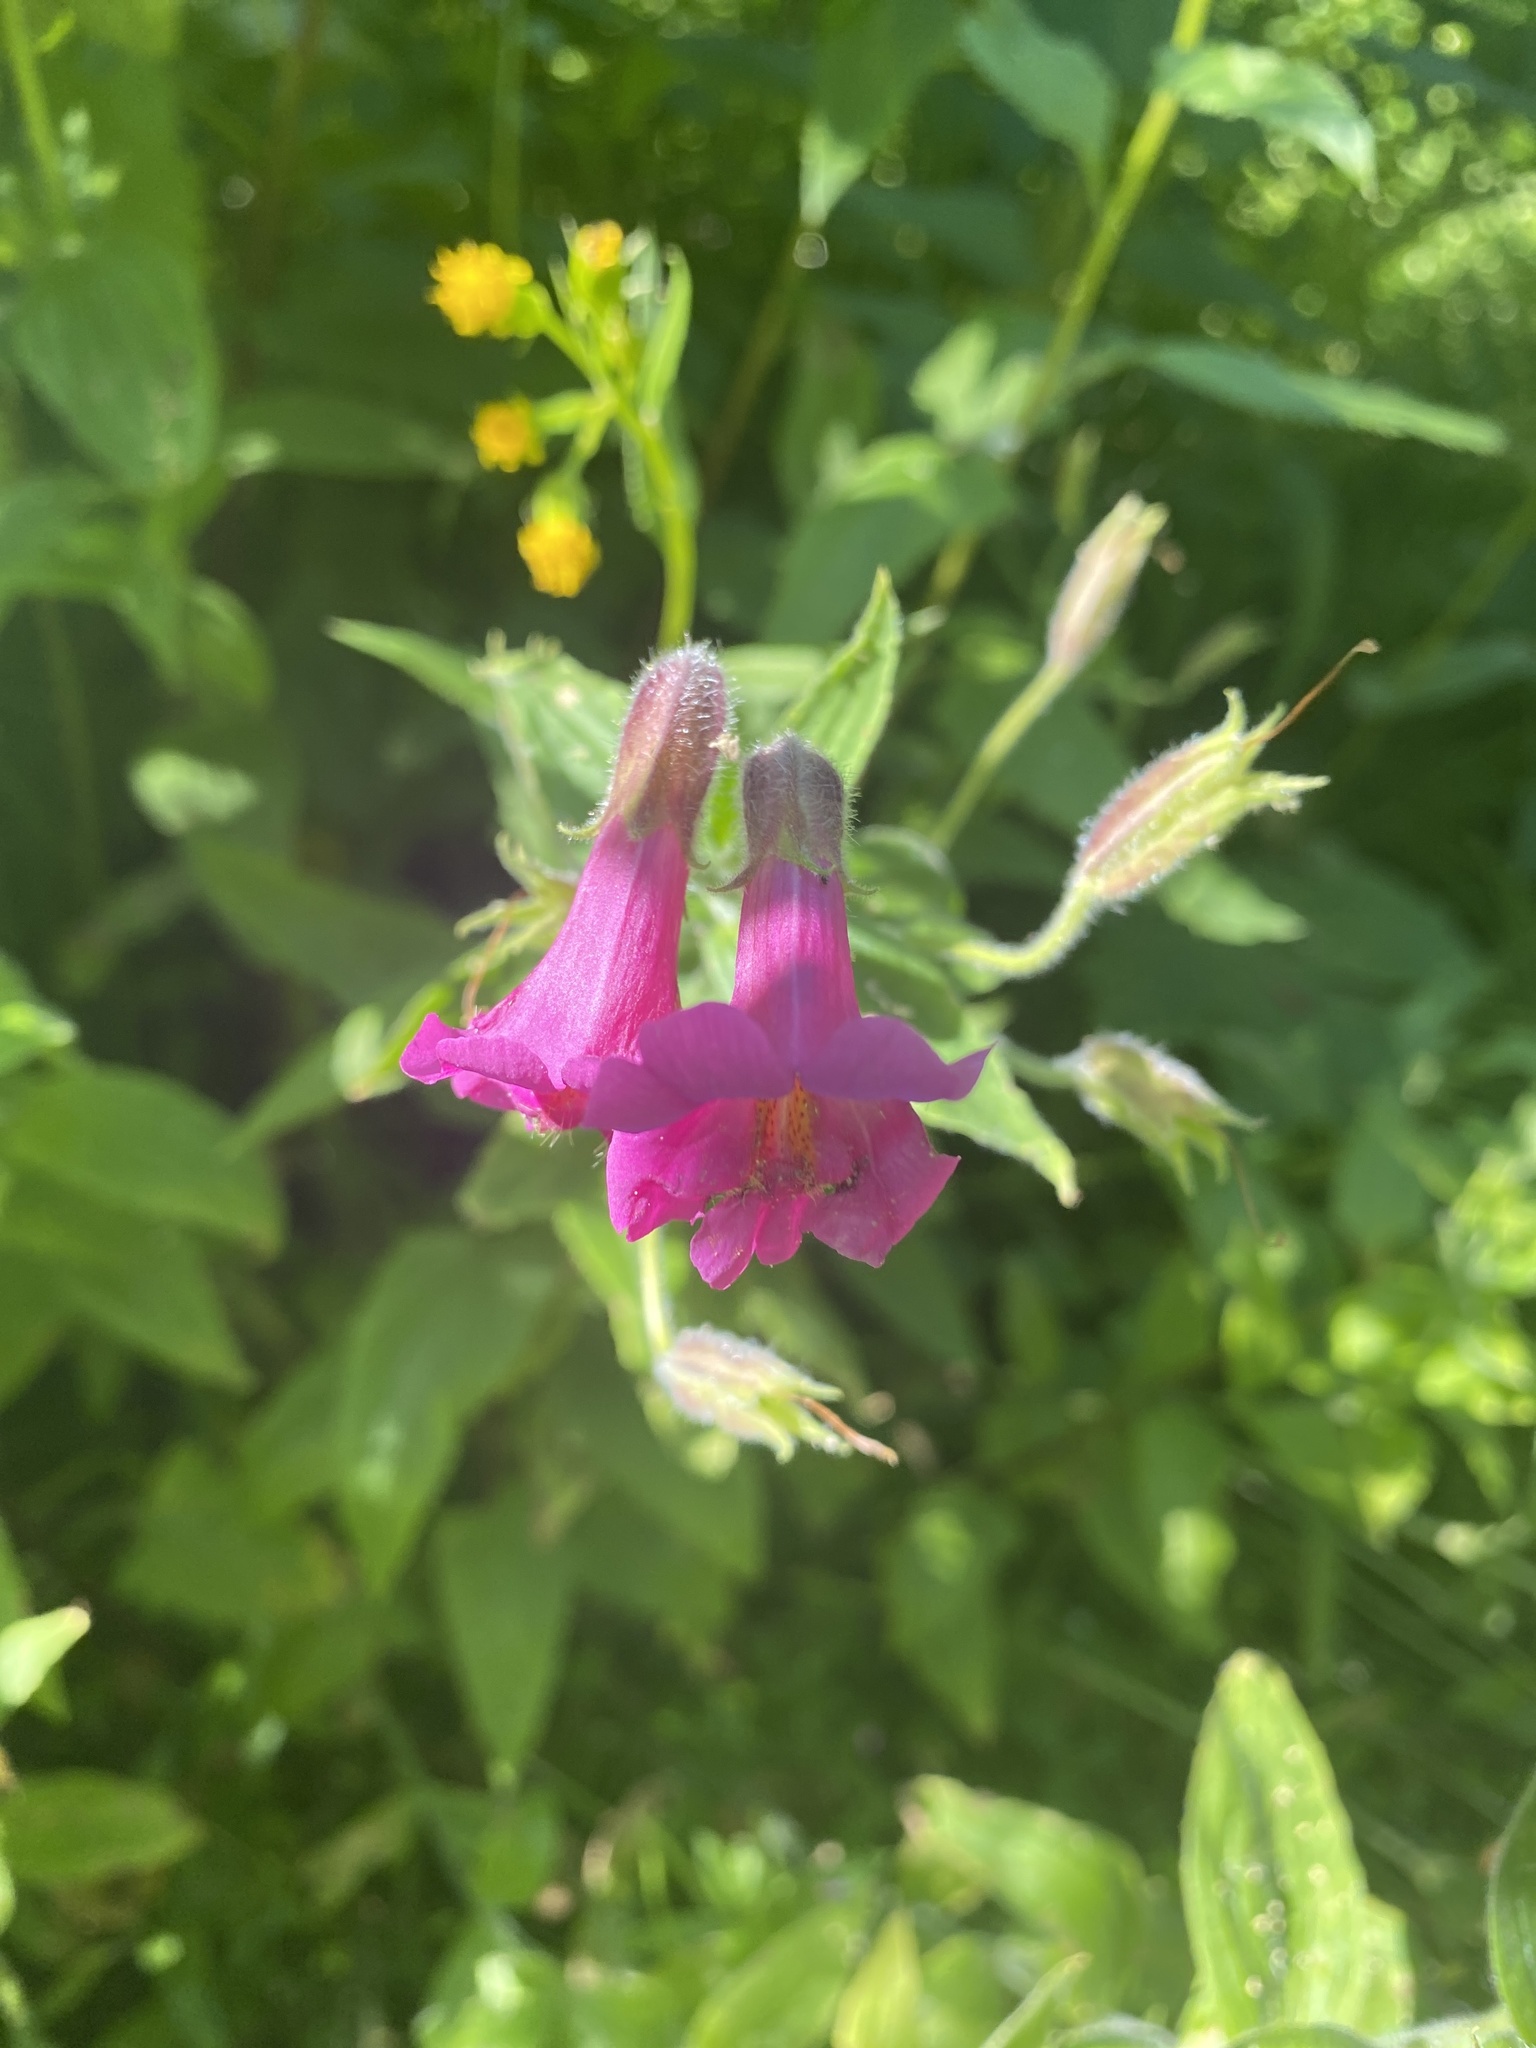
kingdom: Plantae
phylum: Tracheophyta
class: Magnoliopsida
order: Lamiales
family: Phrymaceae
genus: Erythranthe
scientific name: Erythranthe lewisii
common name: Lewis's monkey-flower
